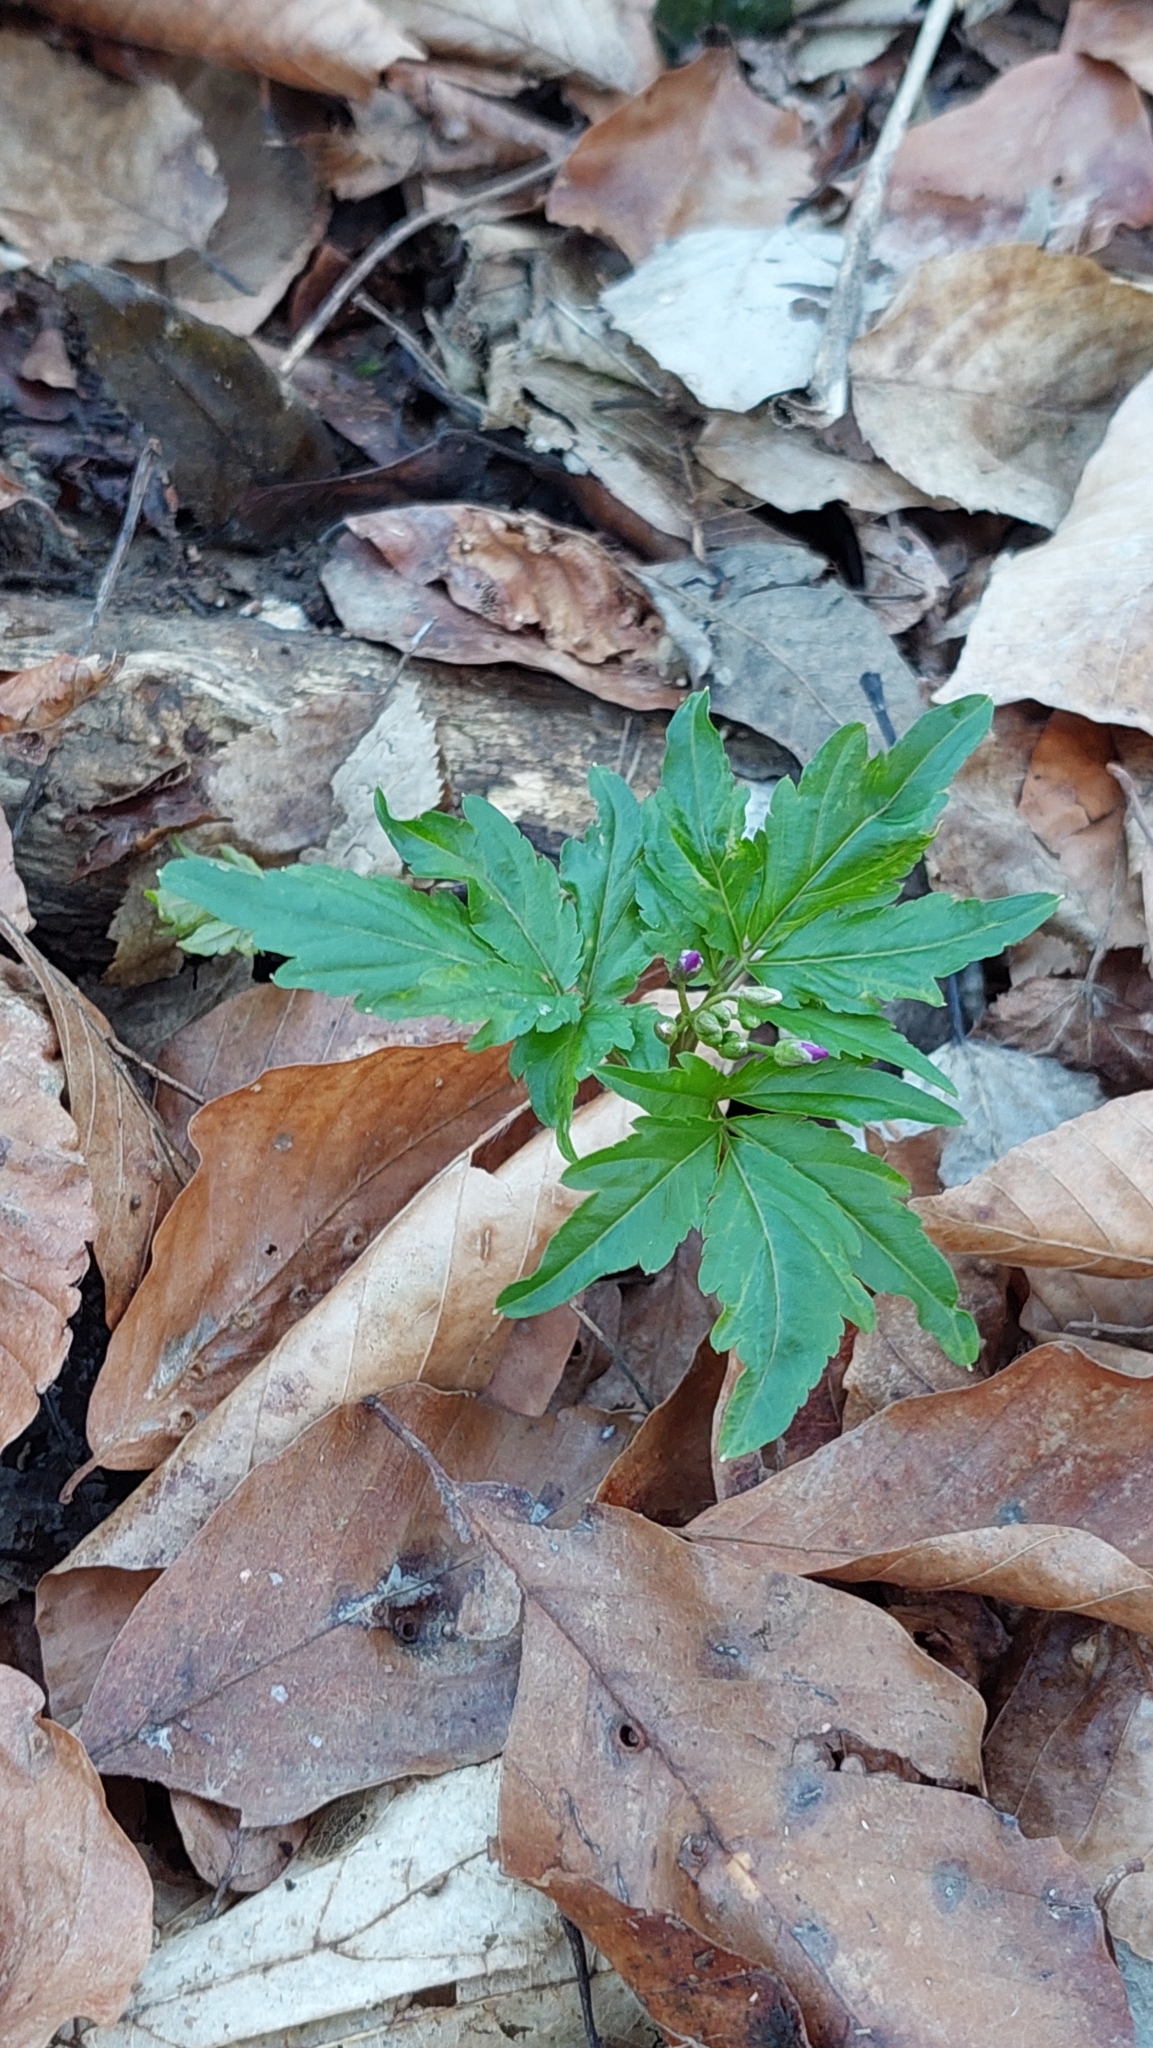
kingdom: Plantae
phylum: Tracheophyta
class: Magnoliopsida
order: Brassicales
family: Brassicaceae
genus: Cardamine
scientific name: Cardamine quinquefolia
